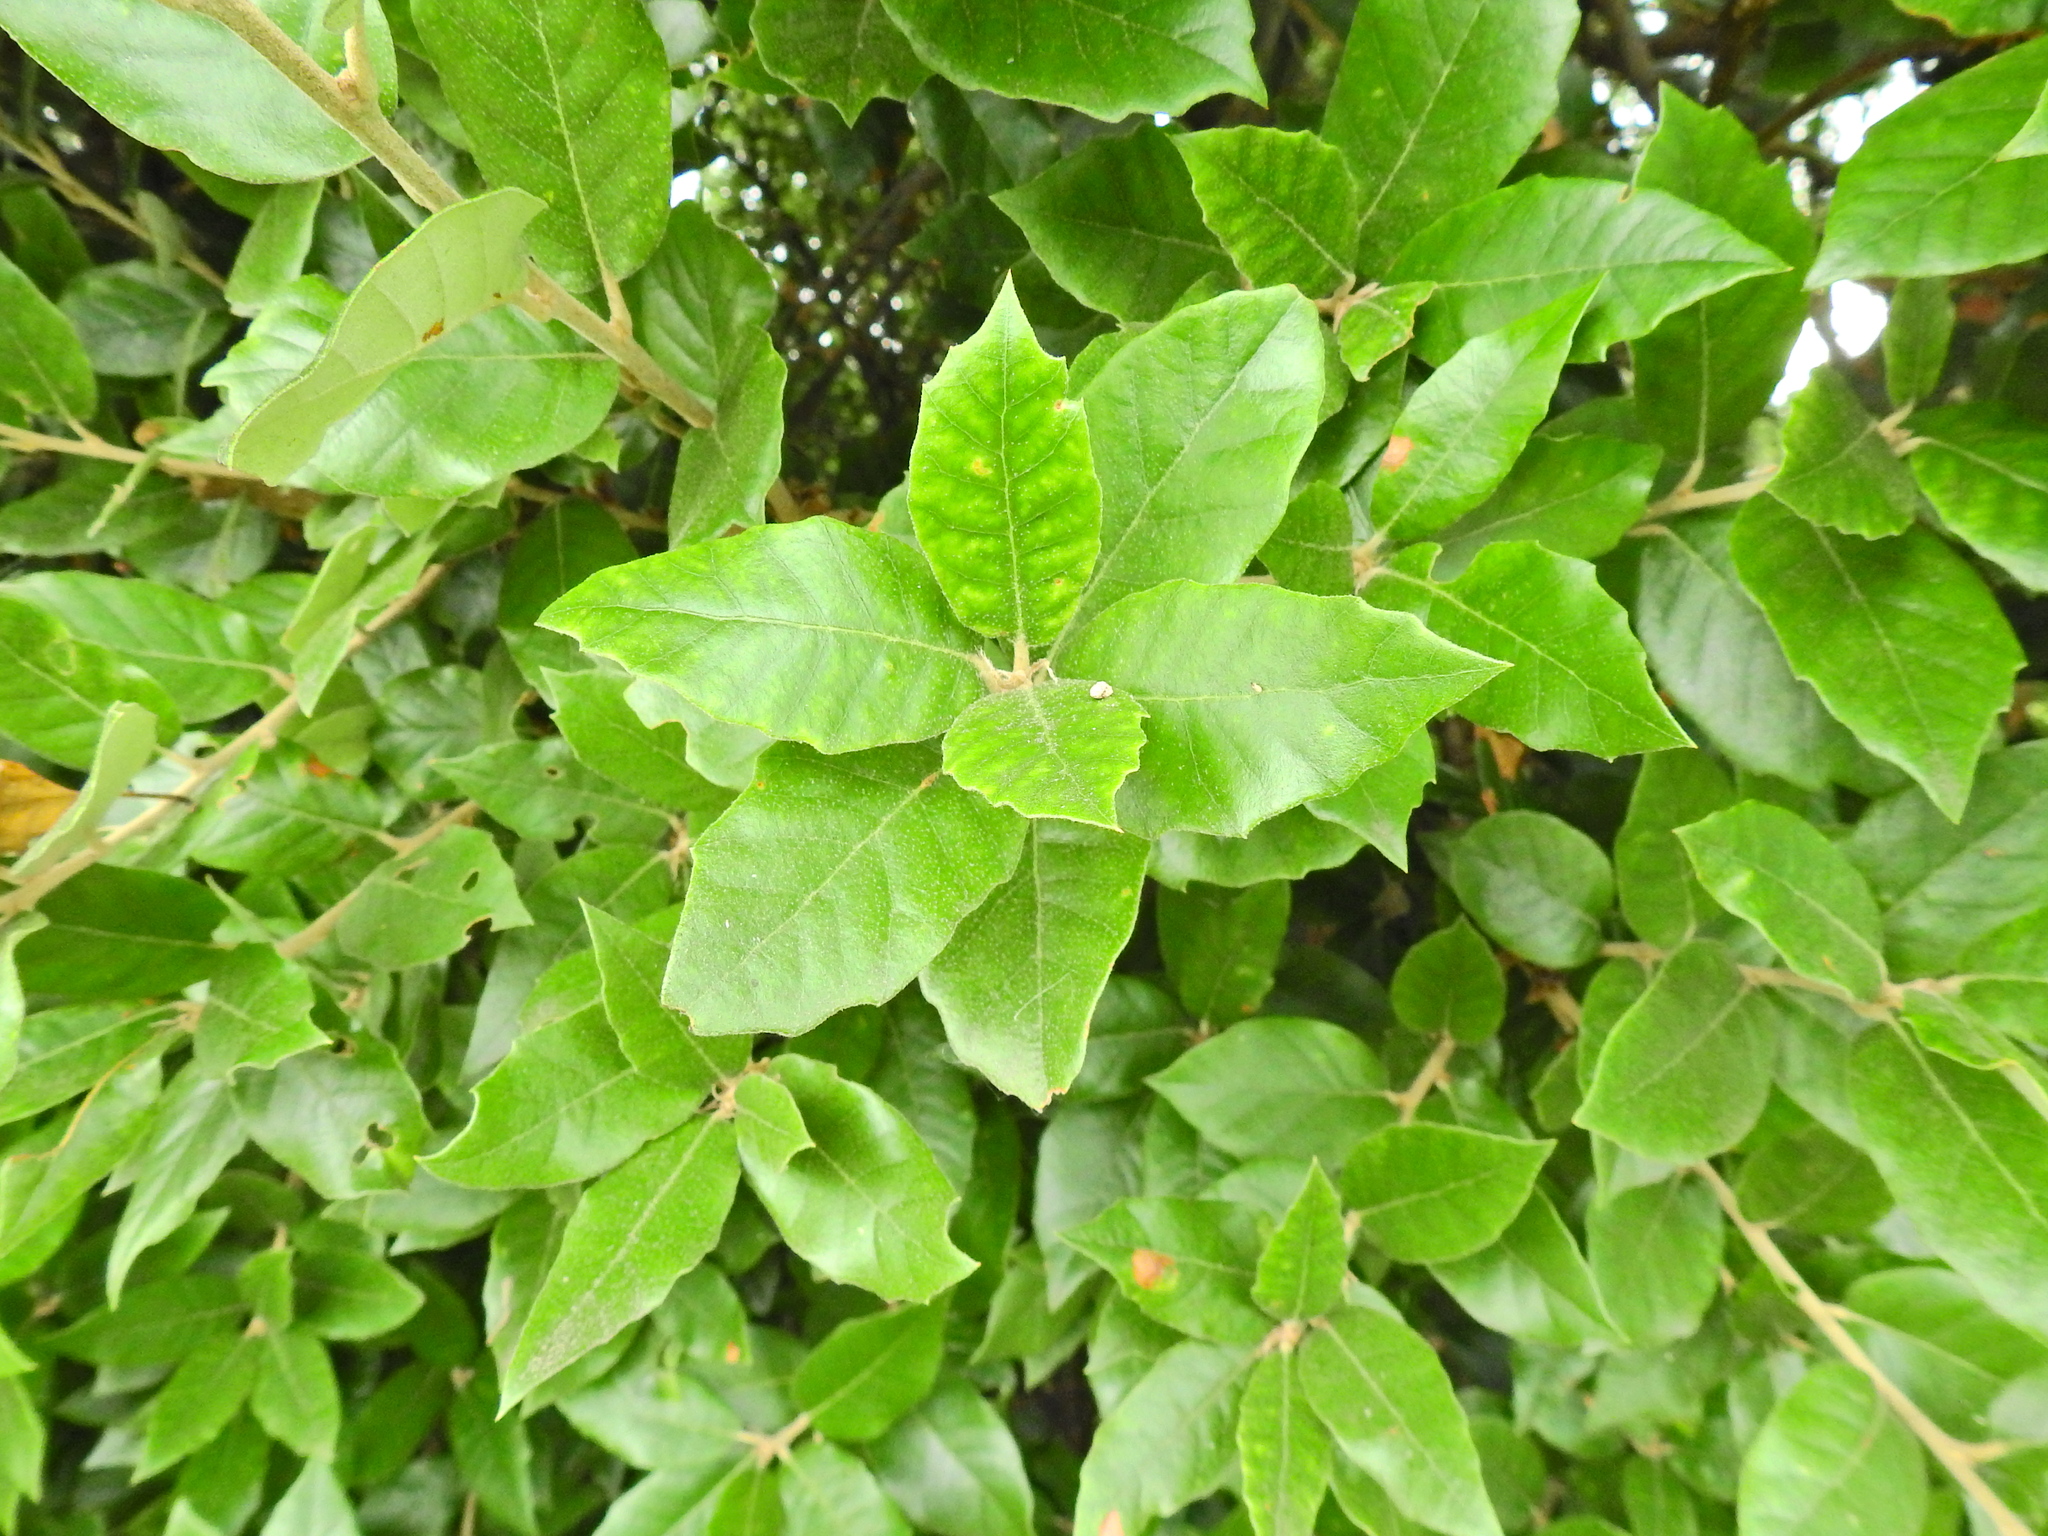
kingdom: Plantae
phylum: Tracheophyta
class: Magnoliopsida
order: Fagales
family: Fagaceae
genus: Quercus
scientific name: Quercus ilex
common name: Evergreen oak
